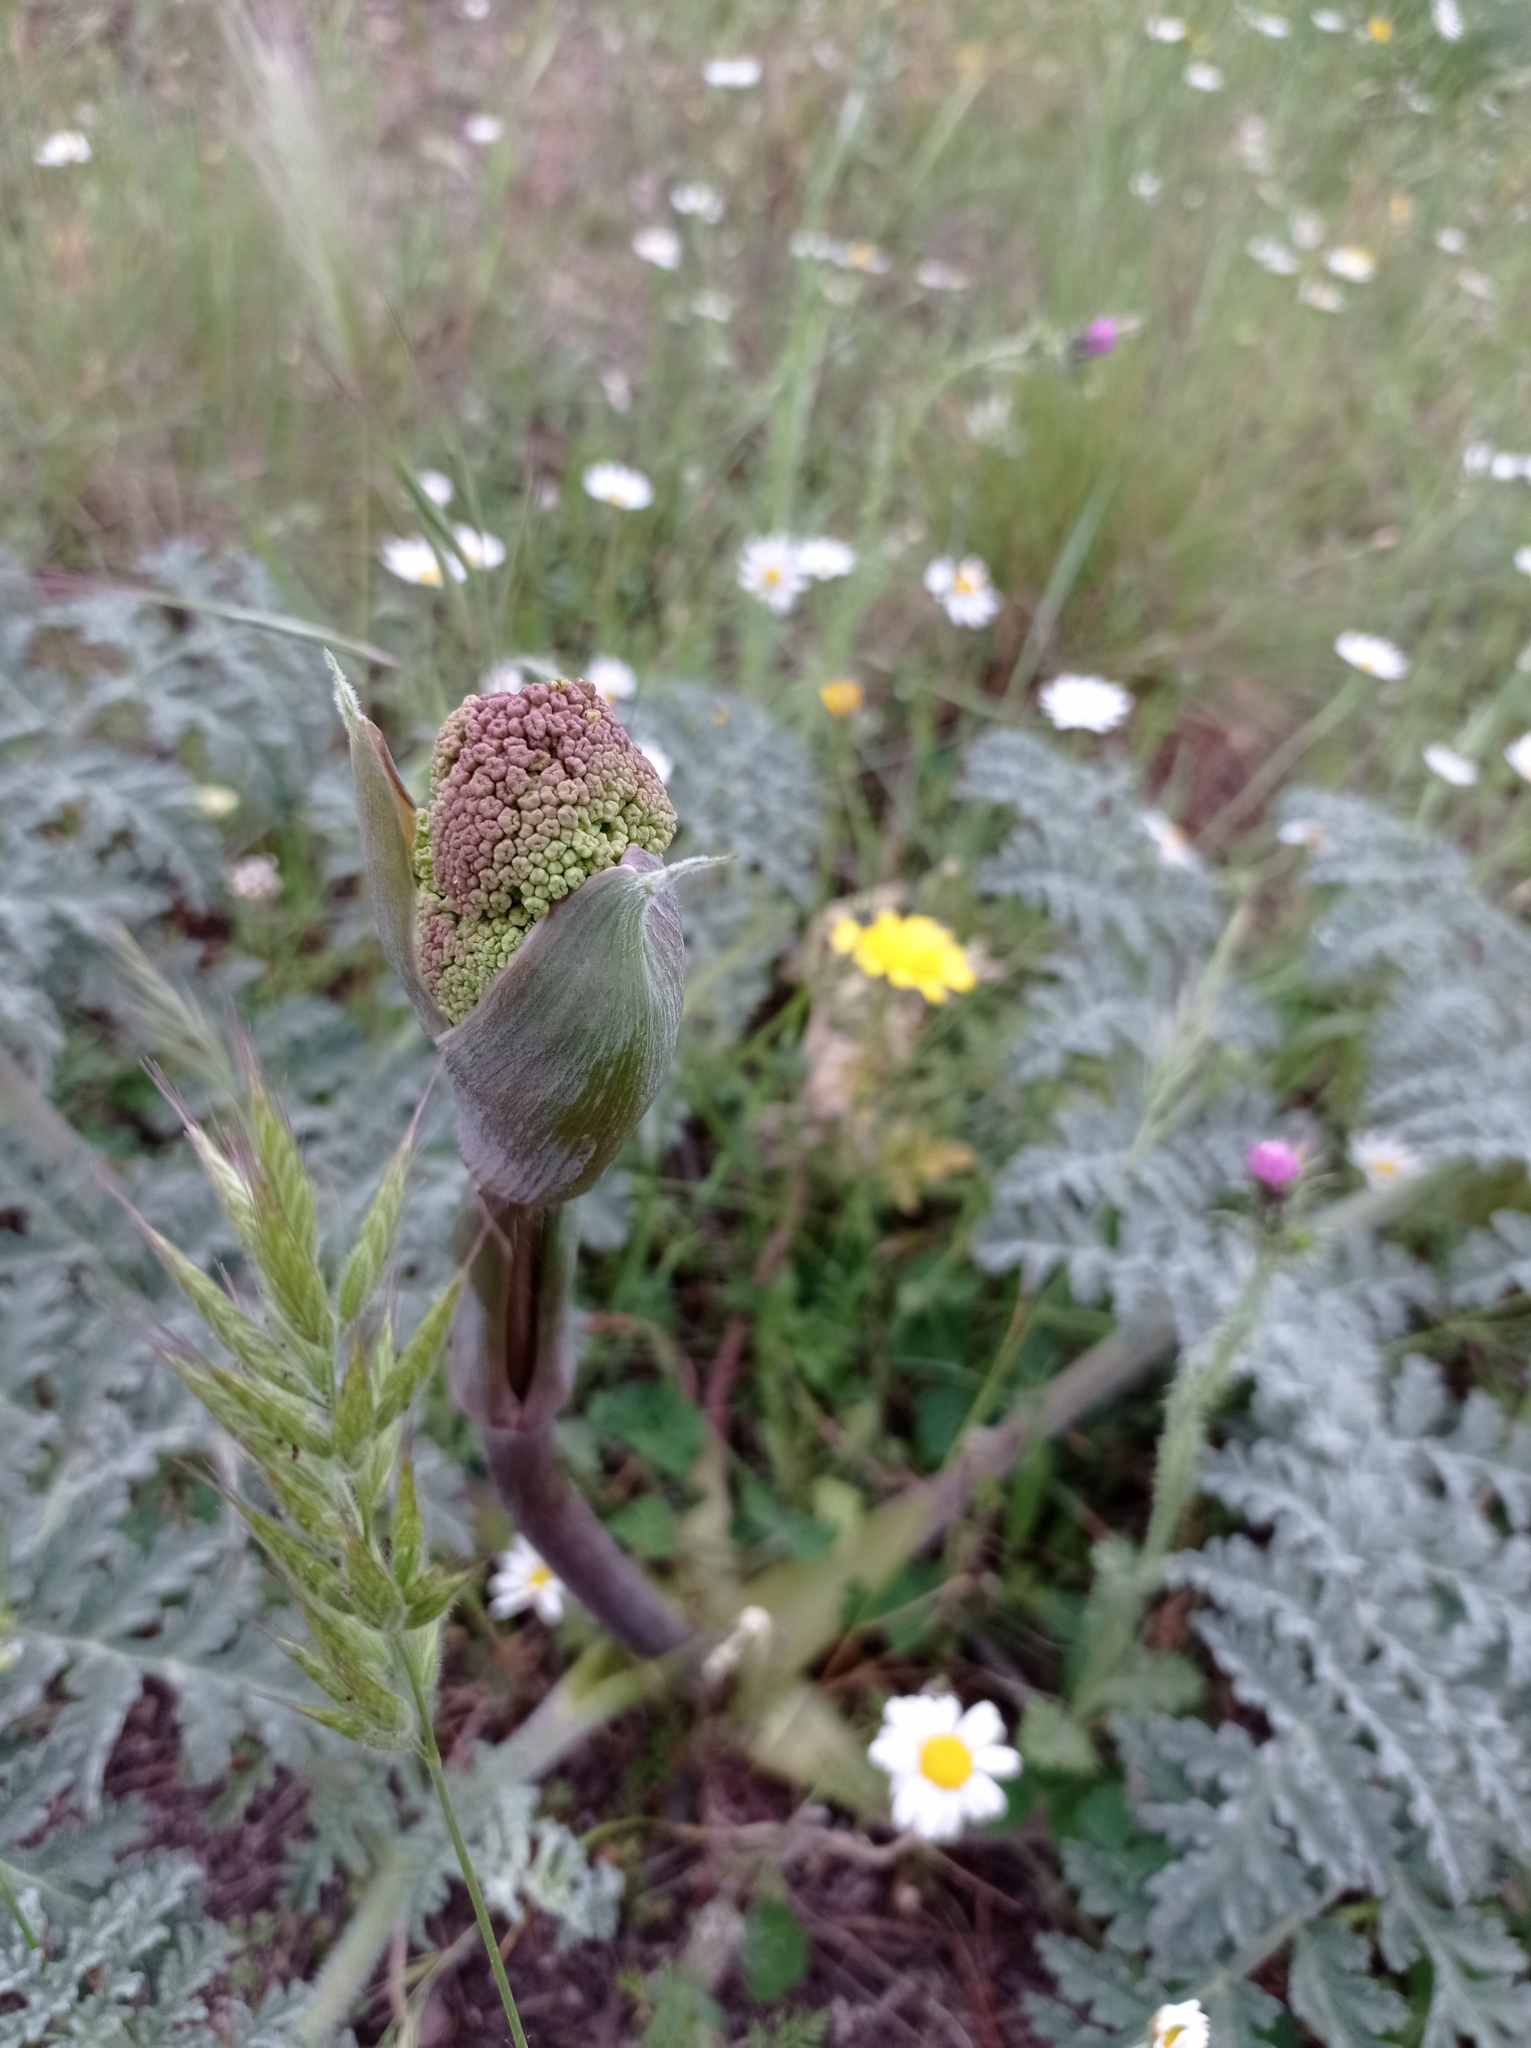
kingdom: Plantae
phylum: Tracheophyta
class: Magnoliopsida
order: Apiales
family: Apiaceae
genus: Thapsia
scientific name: Thapsia villosa
